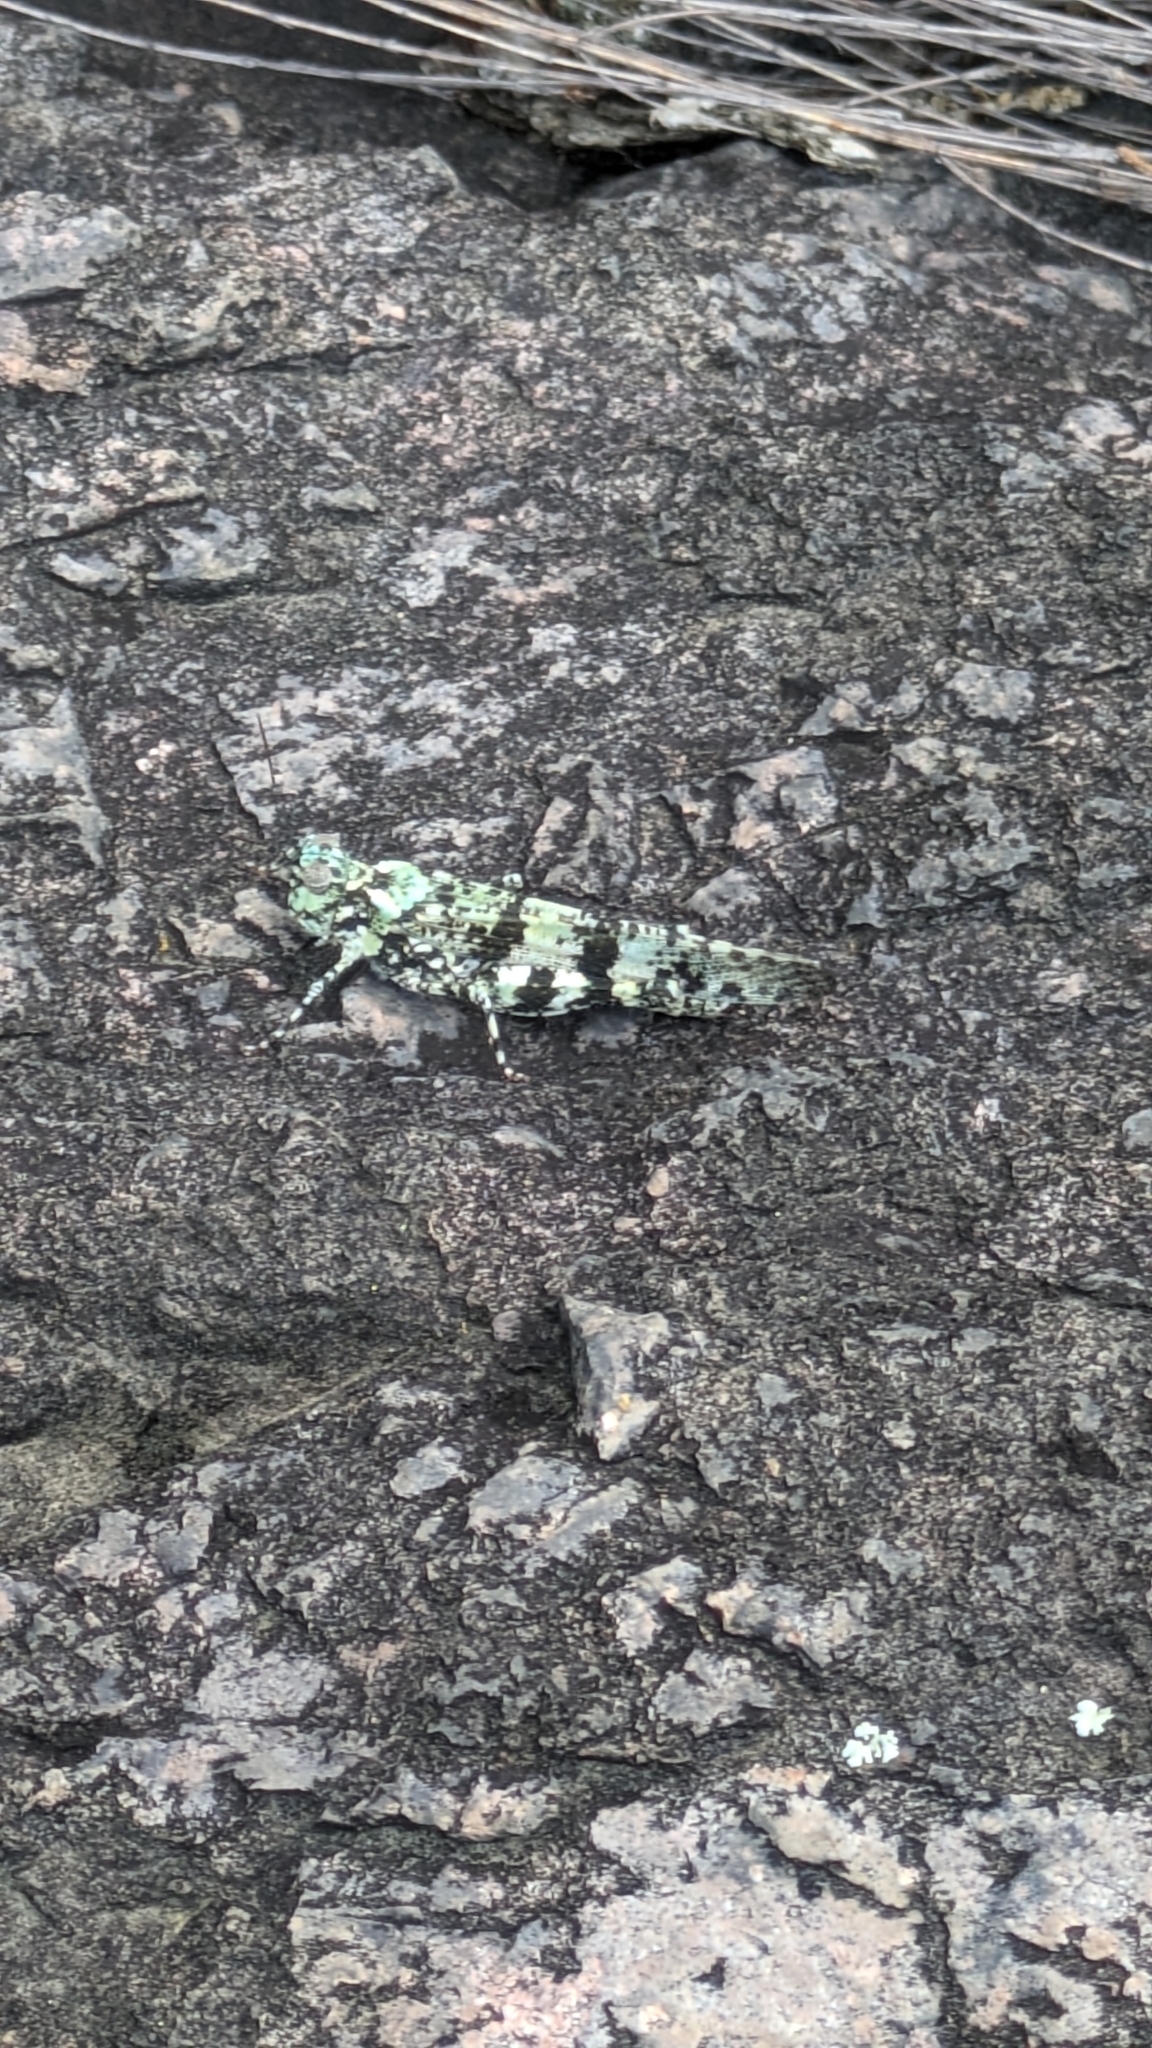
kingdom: Animalia
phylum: Arthropoda
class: Insecta
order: Orthoptera
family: Acrididae
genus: Trimerotropis
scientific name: Trimerotropis saxatilis
